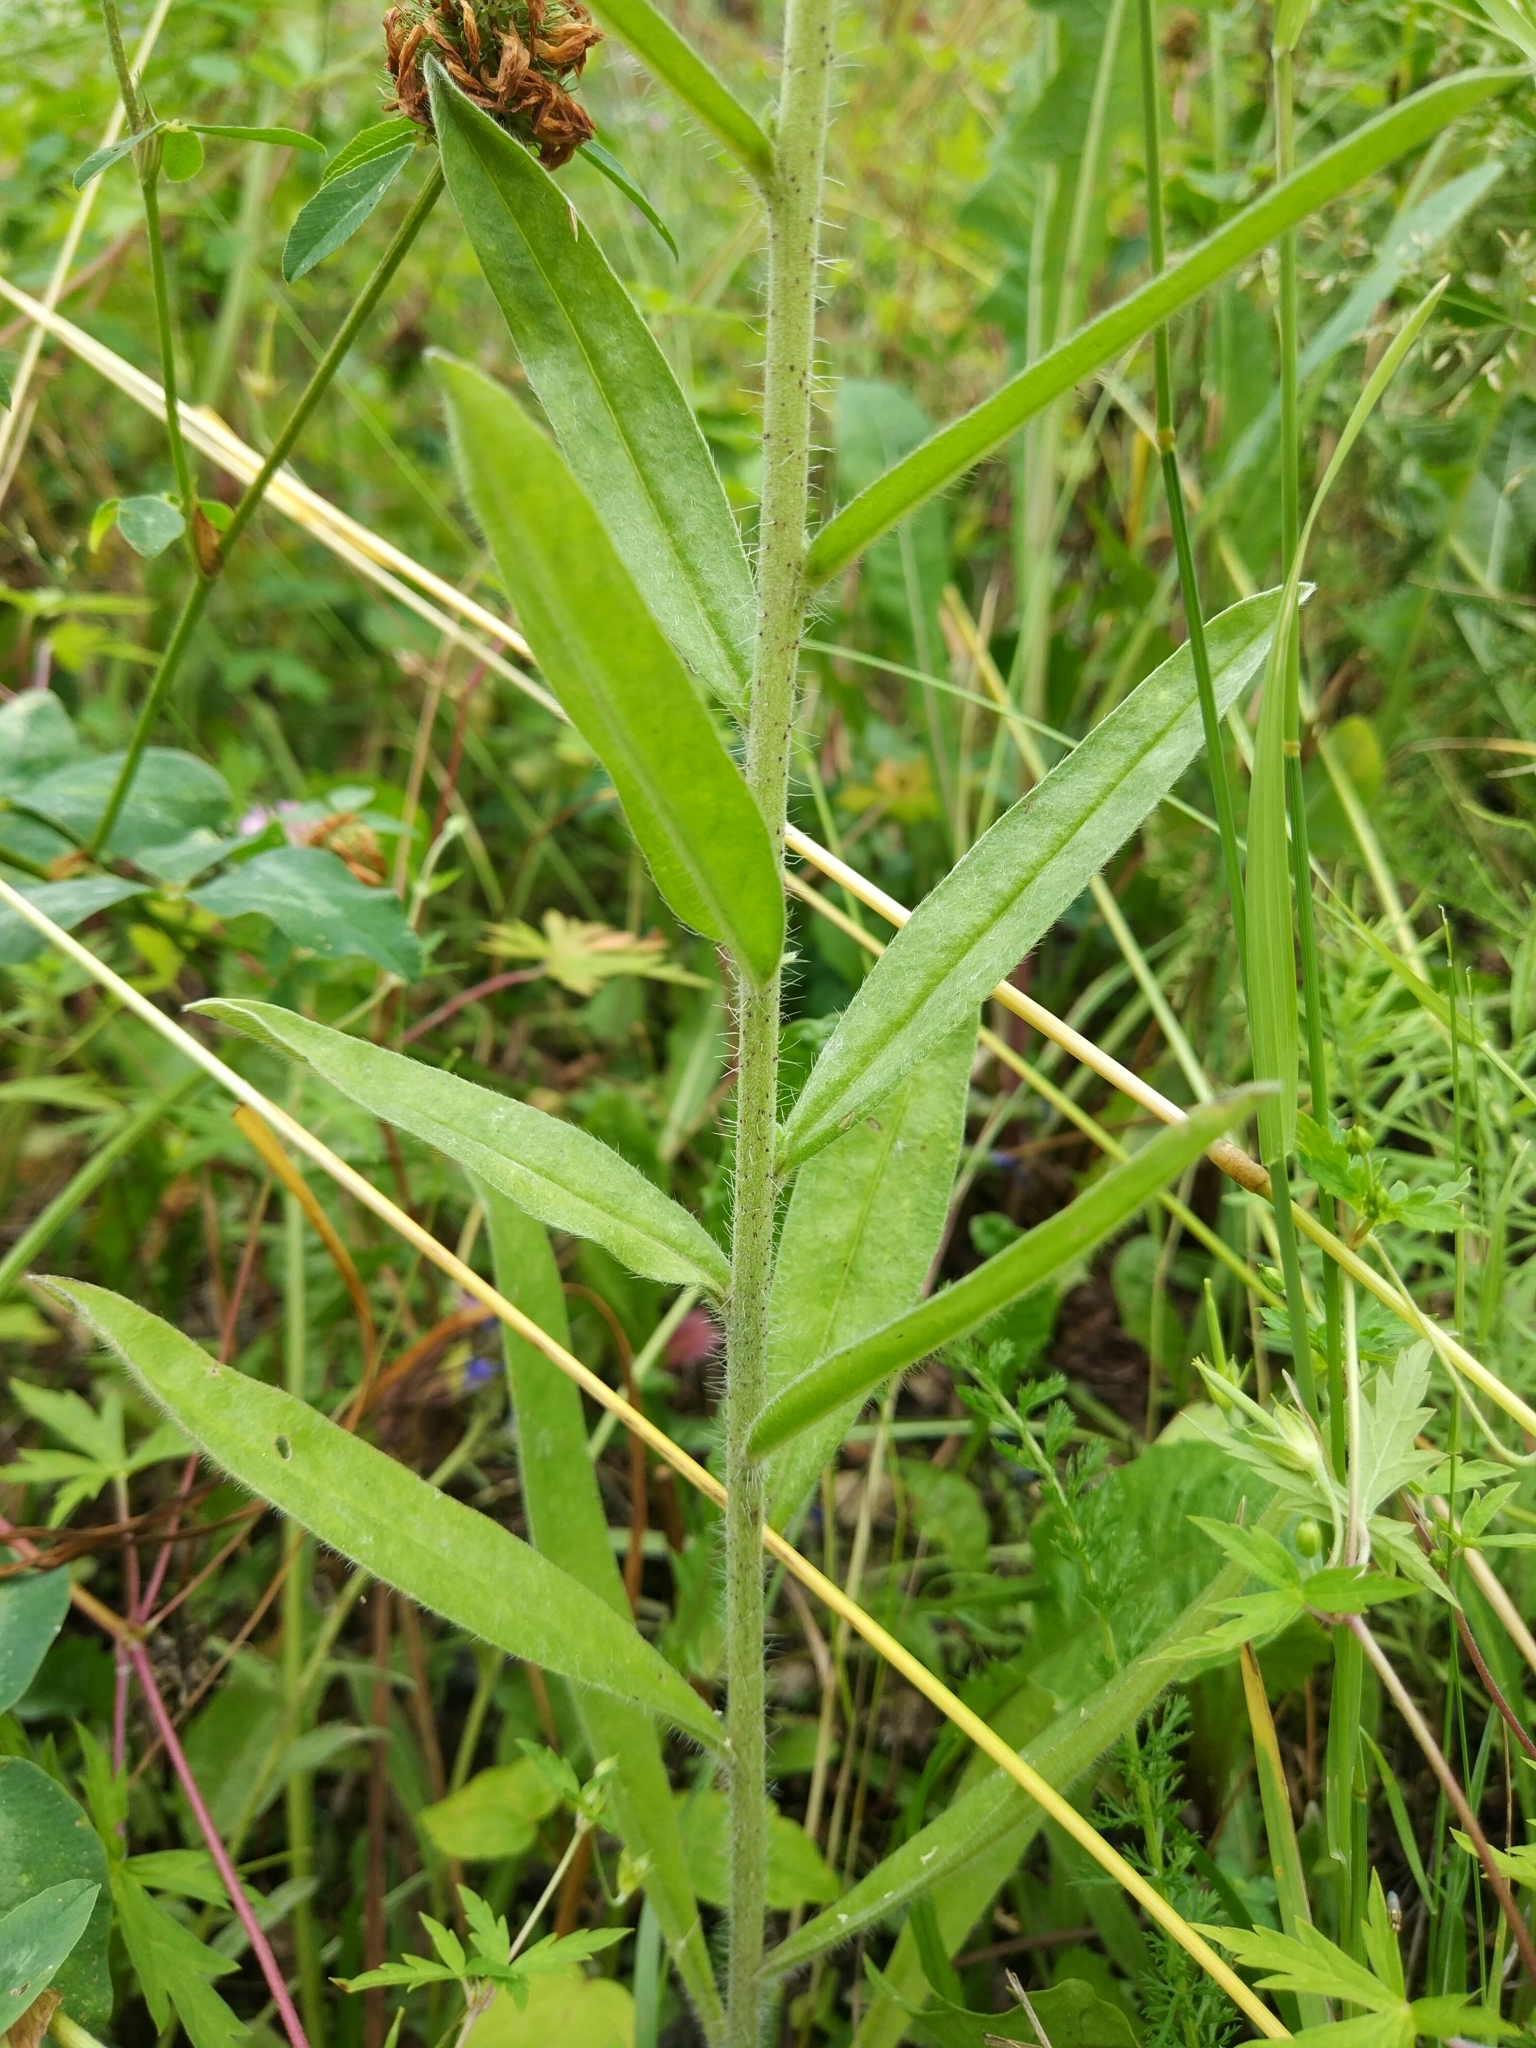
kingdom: Plantae
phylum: Tracheophyta
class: Magnoliopsida
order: Boraginales
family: Boraginaceae
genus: Echium
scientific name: Echium vulgare
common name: Common viper's bugloss
